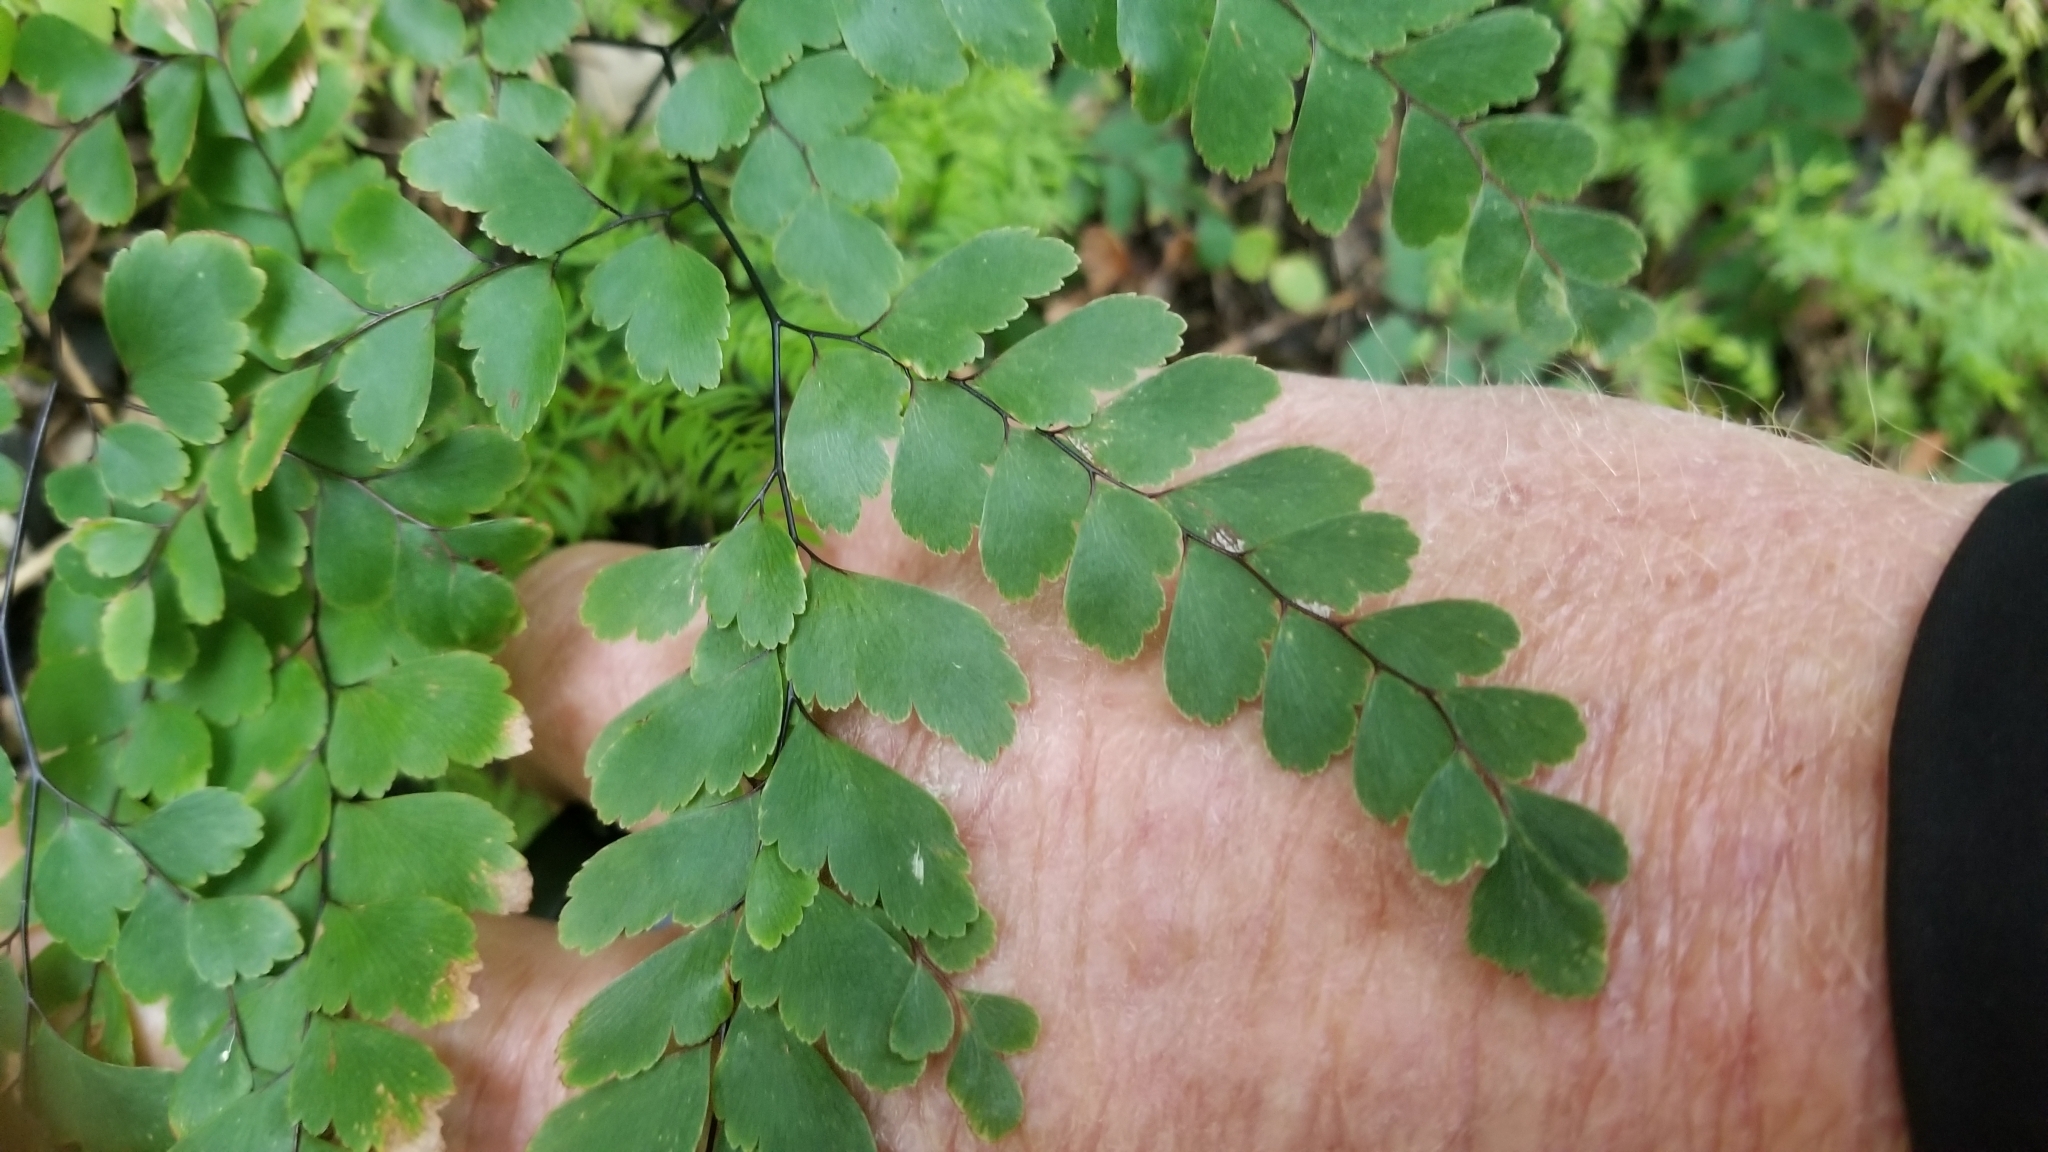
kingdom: Plantae
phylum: Tracheophyta
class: Polypodiopsida
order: Polypodiales
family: Pteridaceae
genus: Adiantum
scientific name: Adiantum cunninghamii
